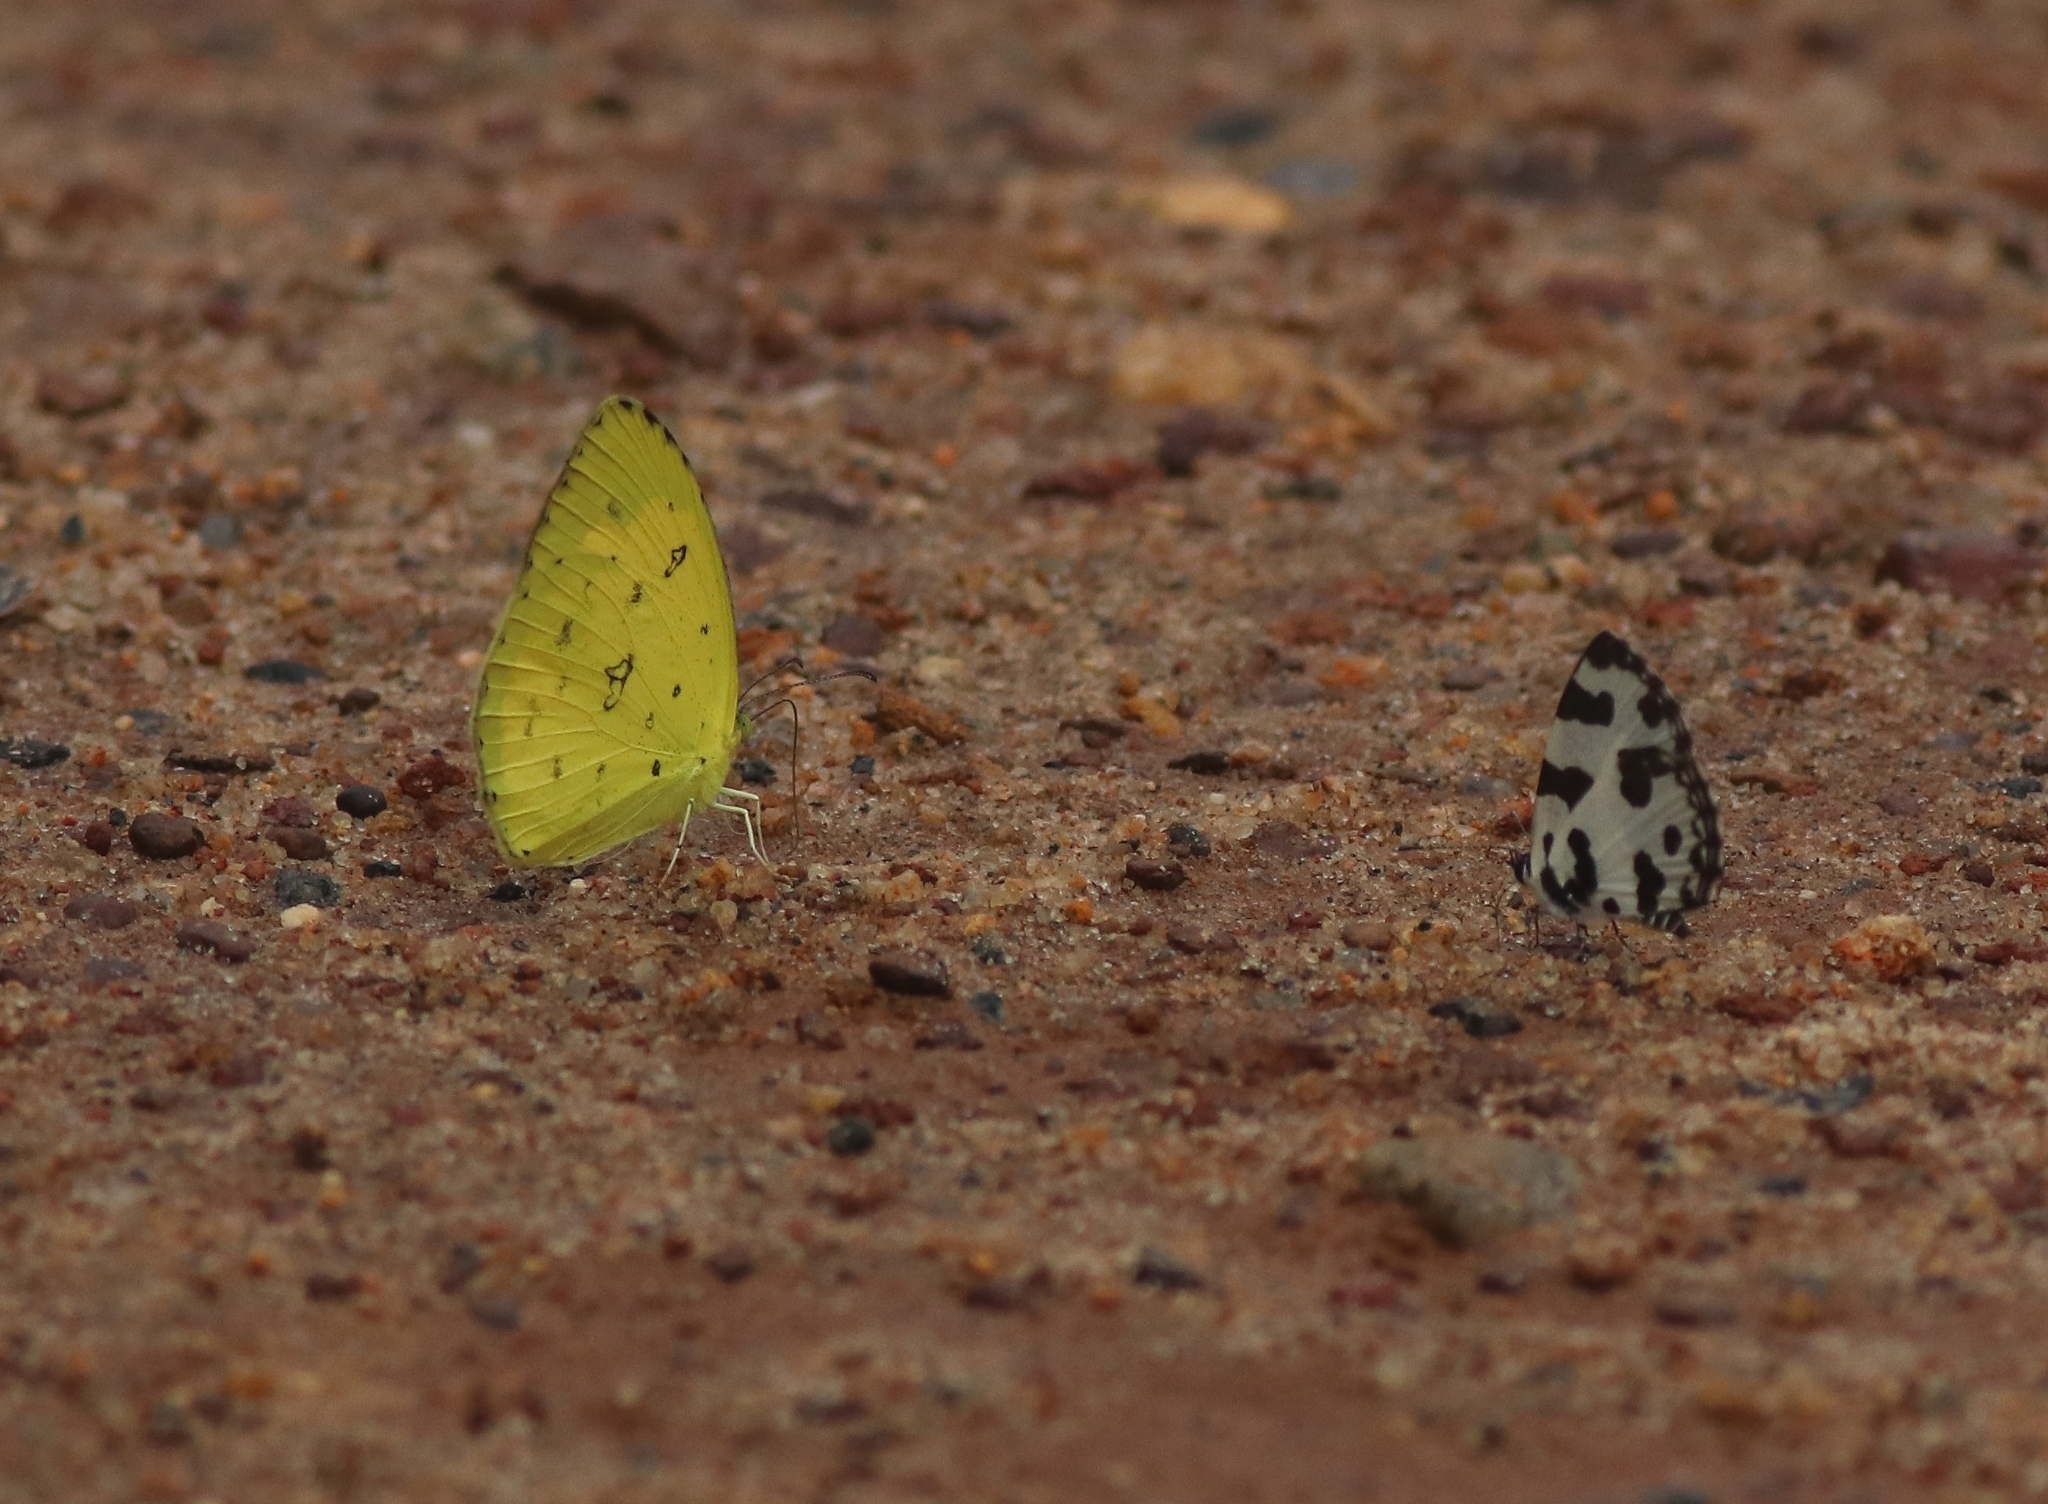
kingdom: Animalia
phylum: Arthropoda
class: Insecta
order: Lepidoptera
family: Lycaenidae
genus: Caleta
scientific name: Caleta decidia
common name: Angled pierrot
